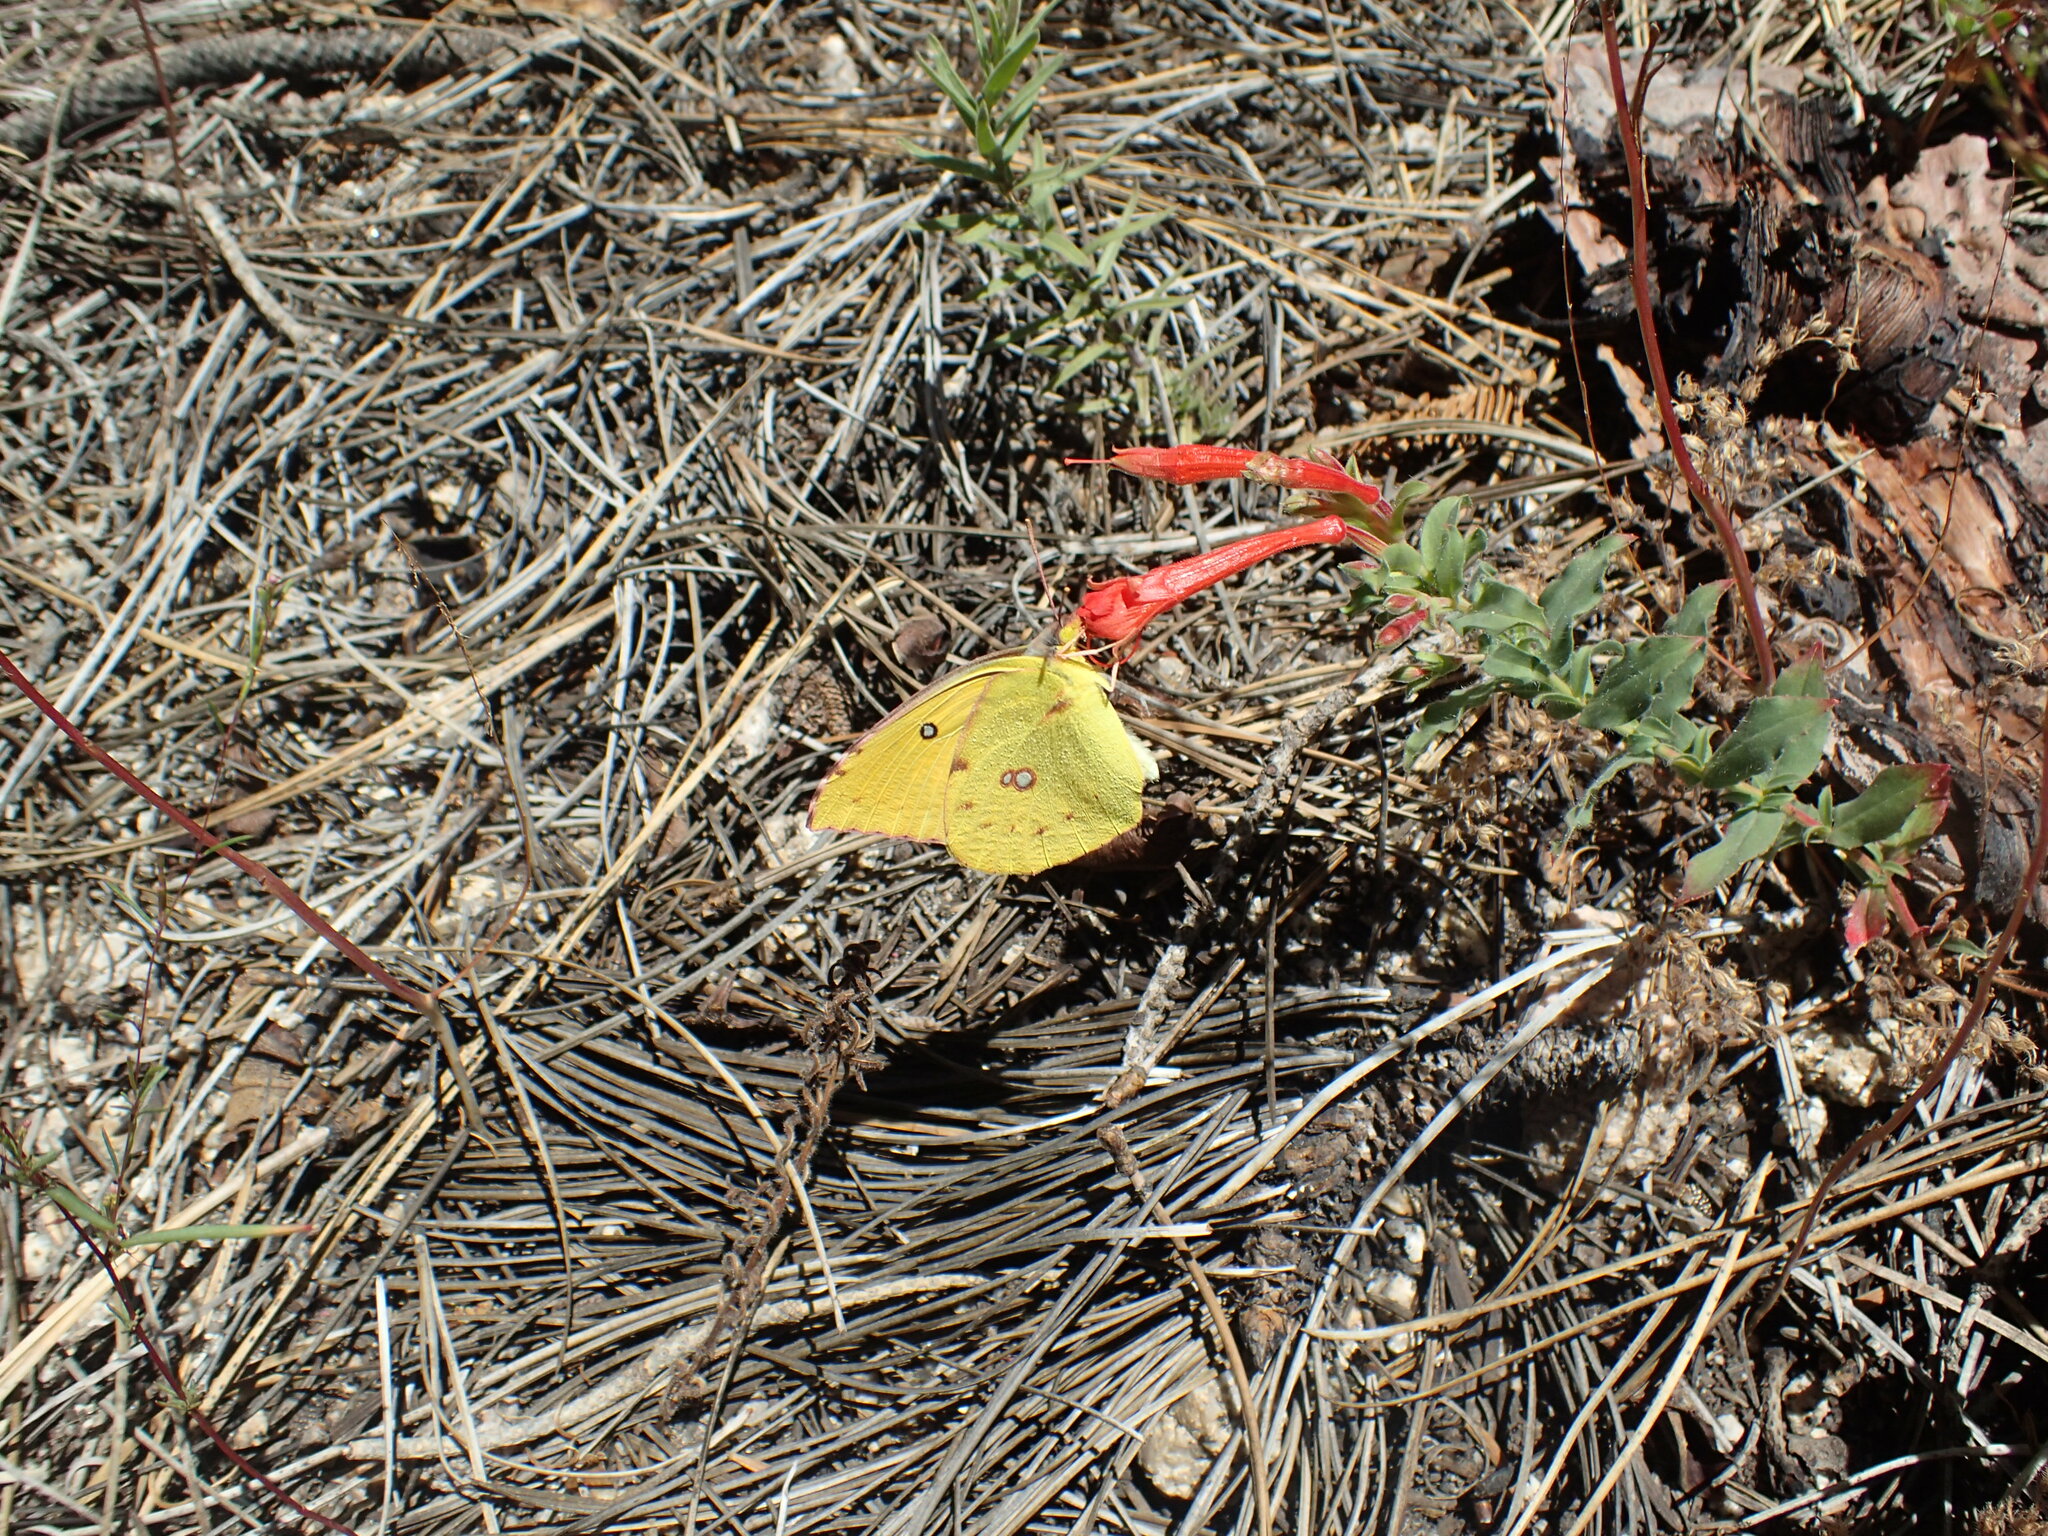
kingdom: Animalia
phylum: Arthropoda
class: Insecta
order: Lepidoptera
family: Pieridae
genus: Zerene
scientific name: Zerene eurydice
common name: California dogface
